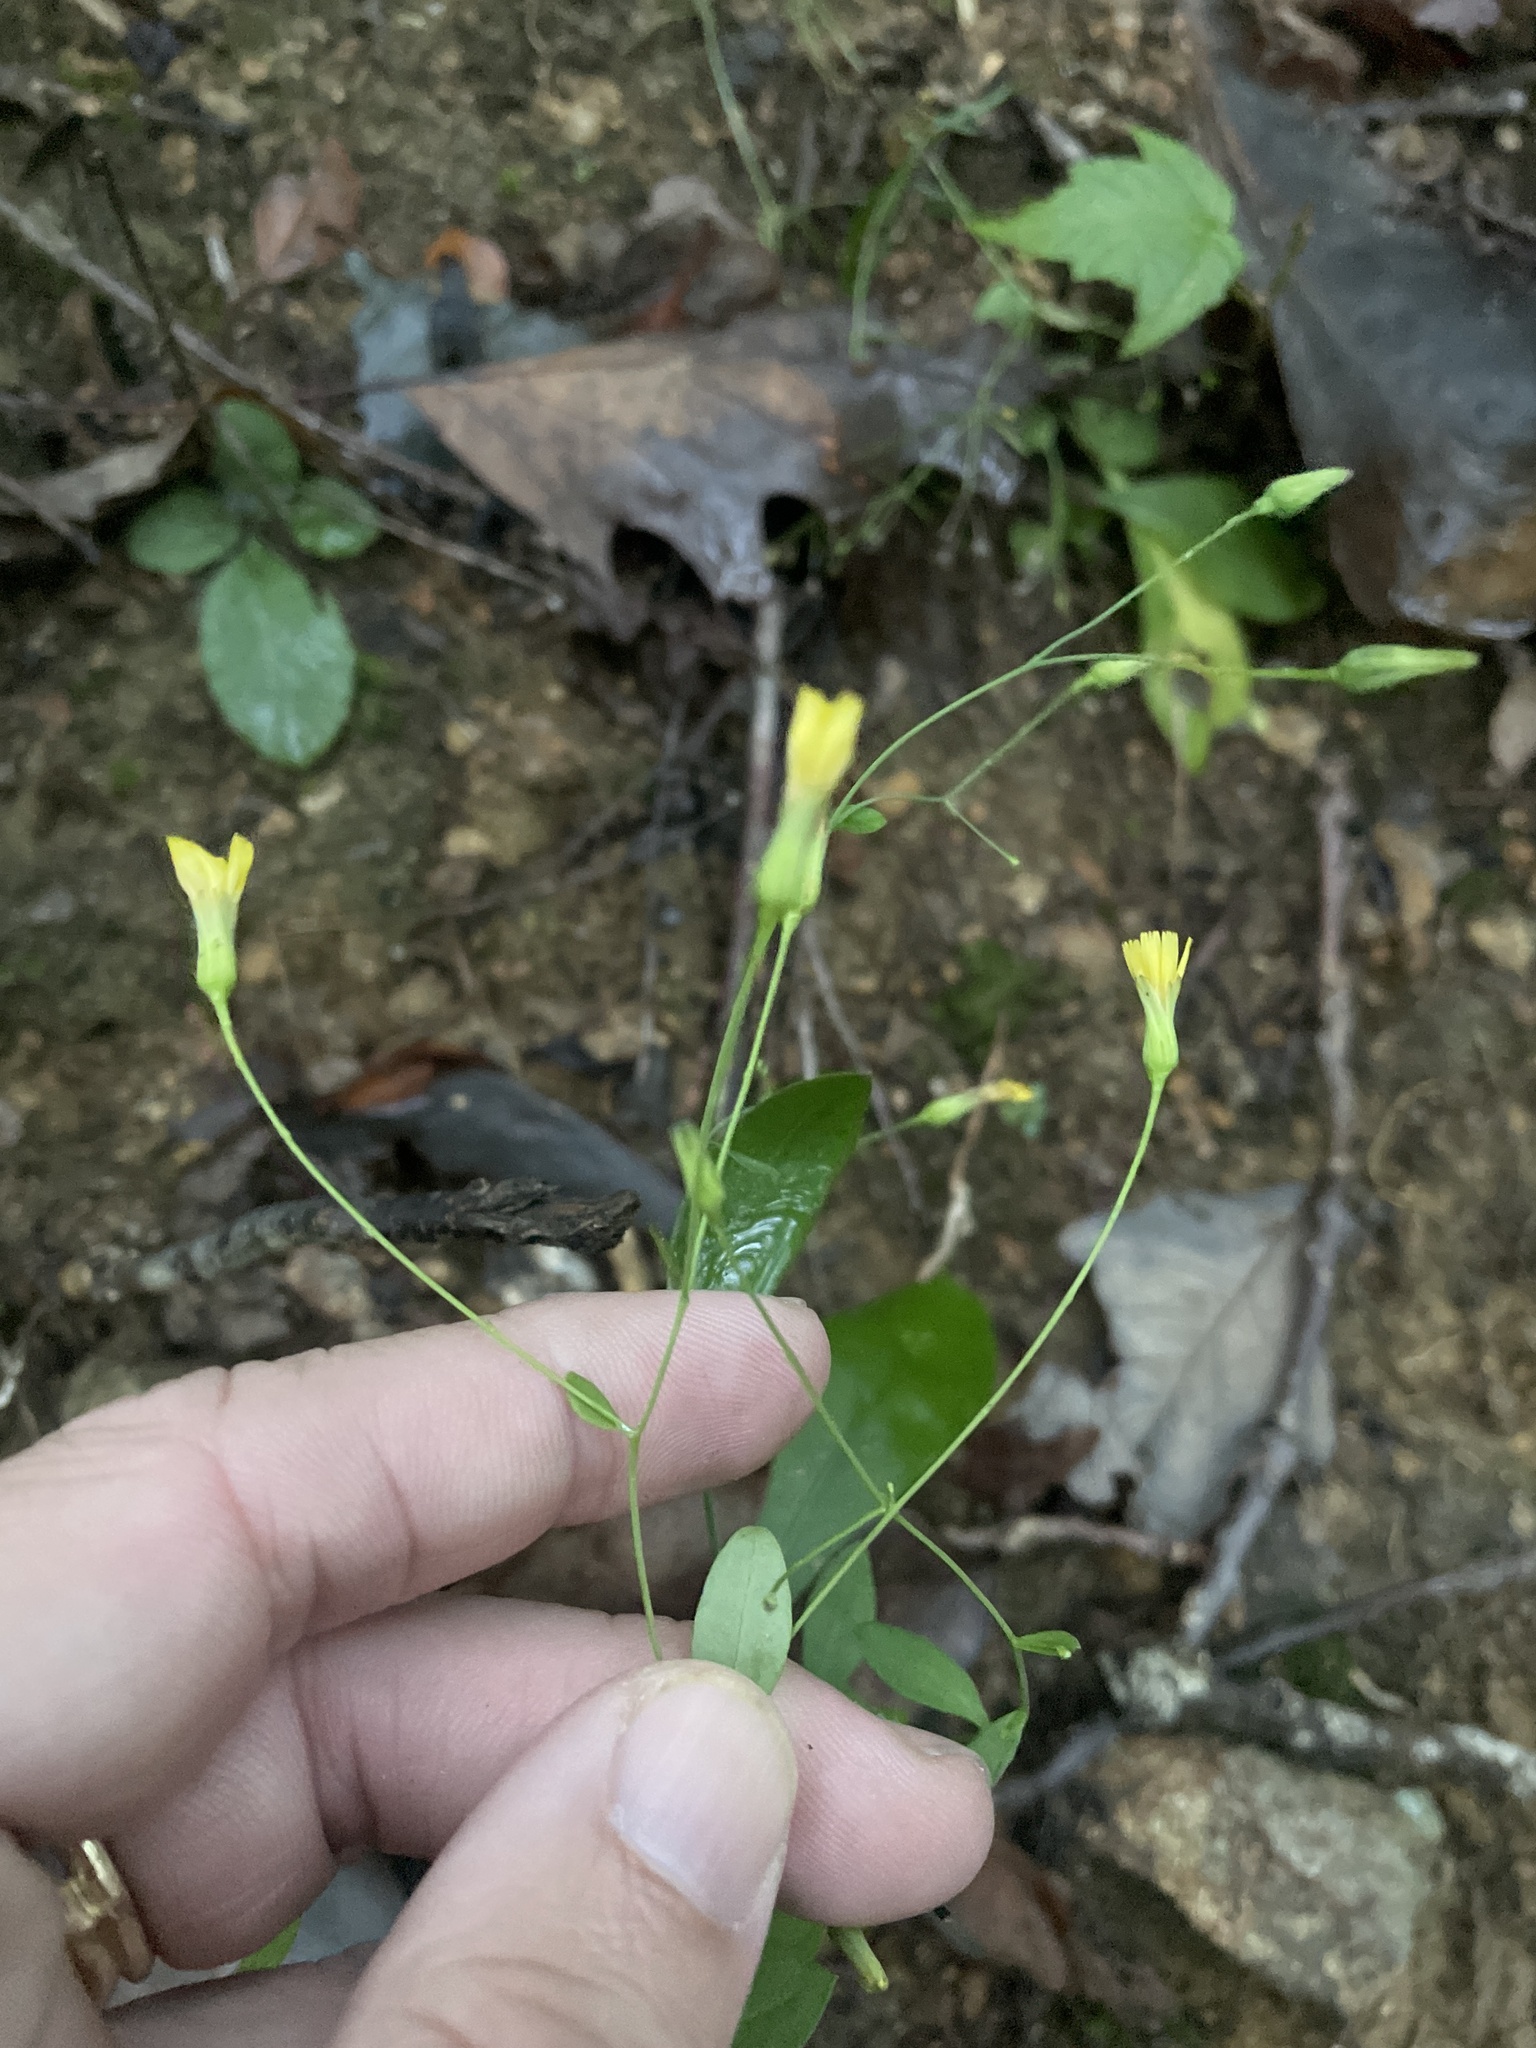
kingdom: Plantae
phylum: Tracheophyta
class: Magnoliopsida
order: Asterales
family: Asteraceae
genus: Hieracium
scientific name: Hieracium paniculatum
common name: Allegheny hawkweed
